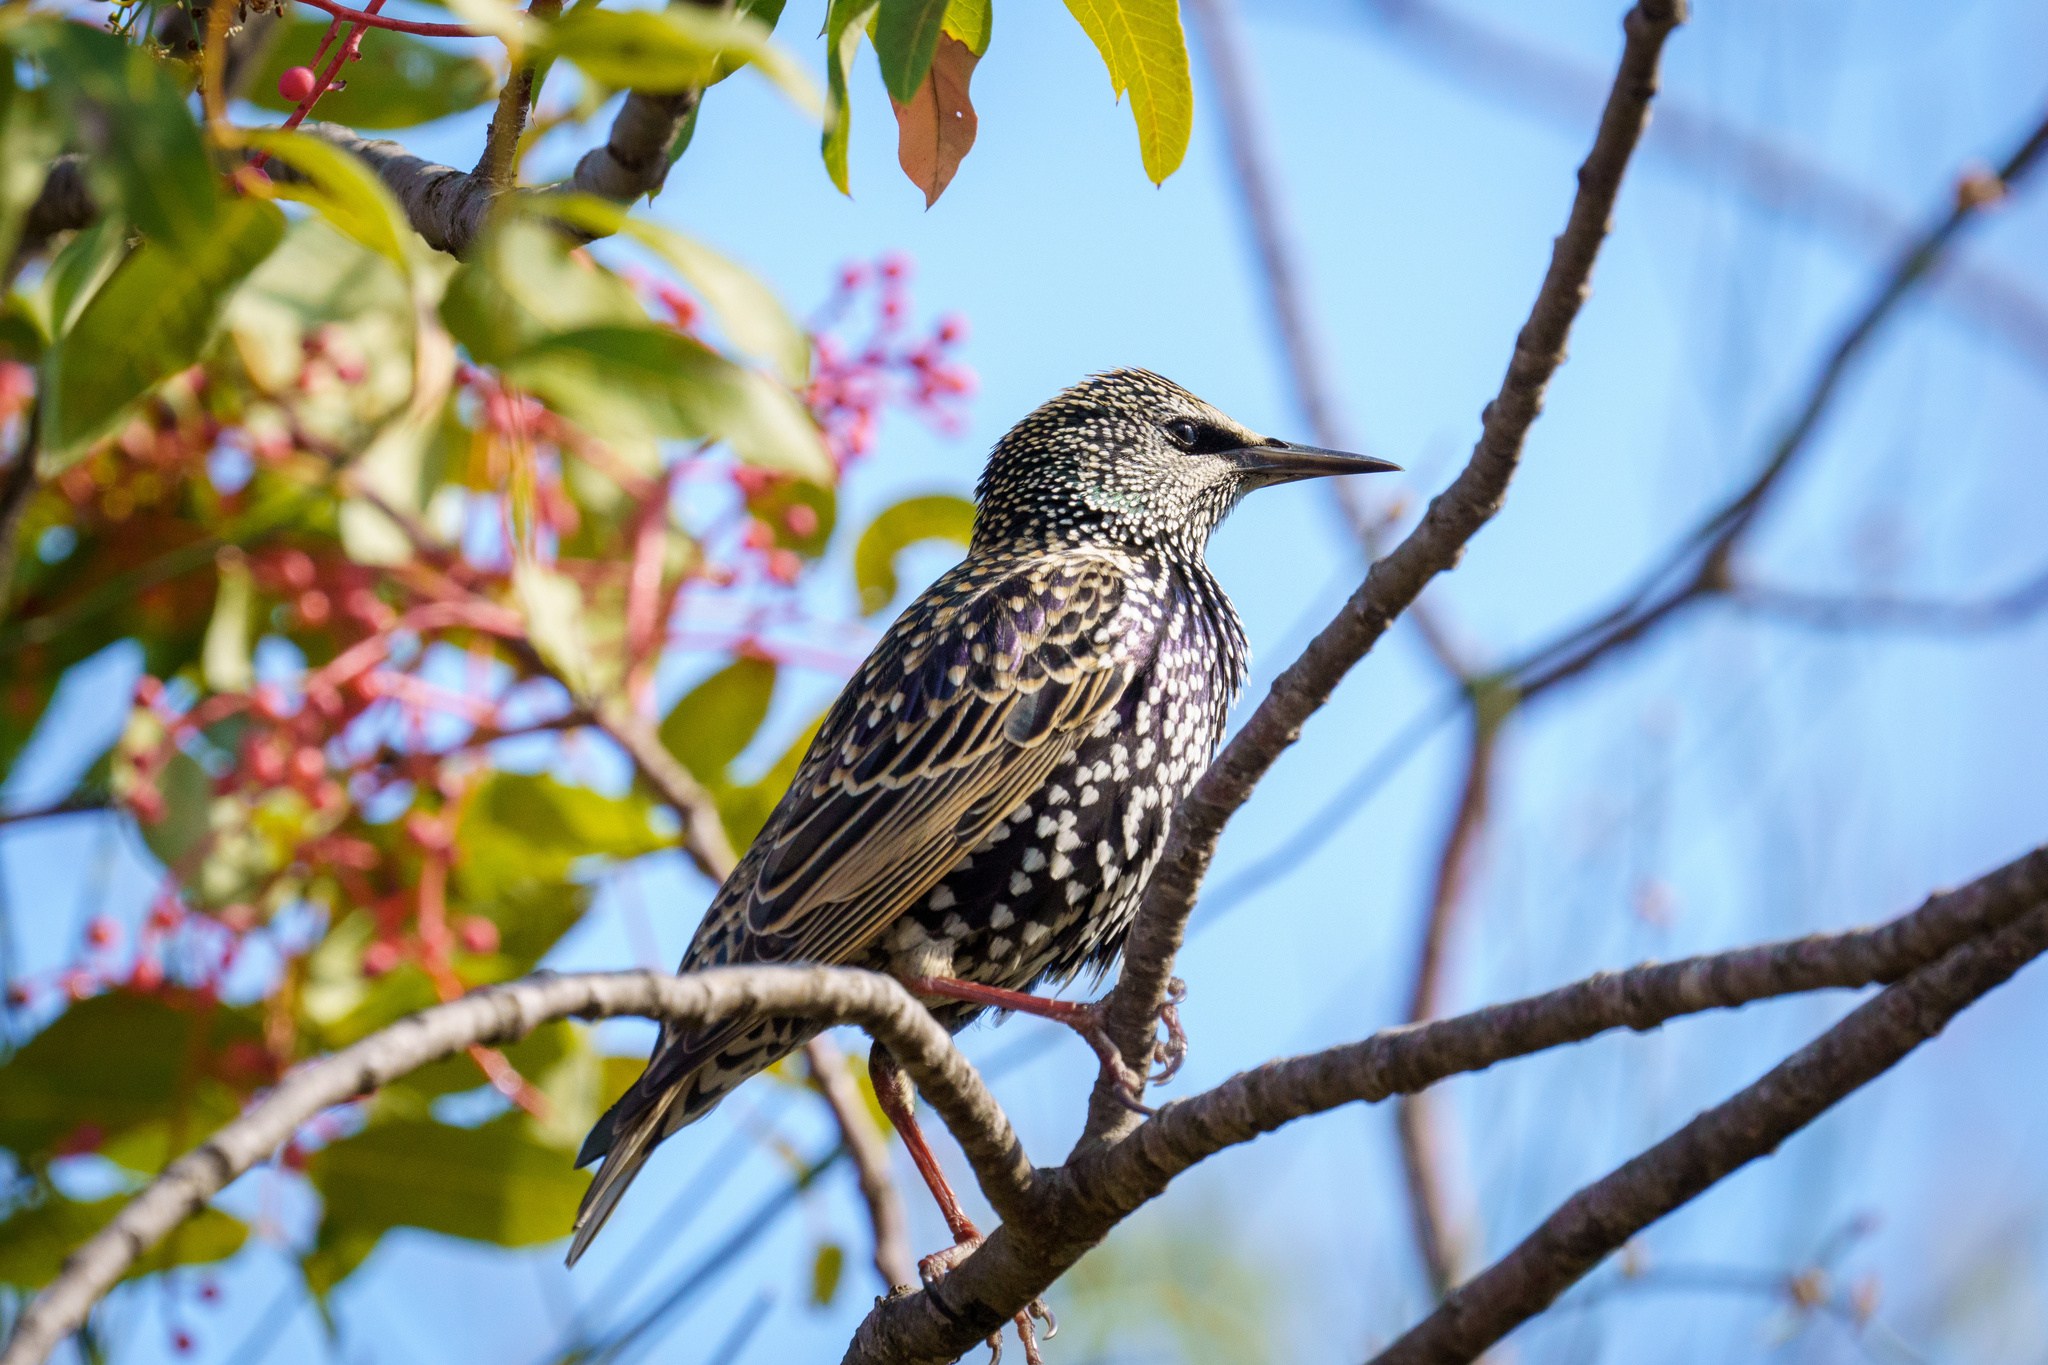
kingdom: Animalia
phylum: Chordata
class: Aves
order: Passeriformes
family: Sturnidae
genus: Sturnus
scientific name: Sturnus vulgaris
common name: Common starling
